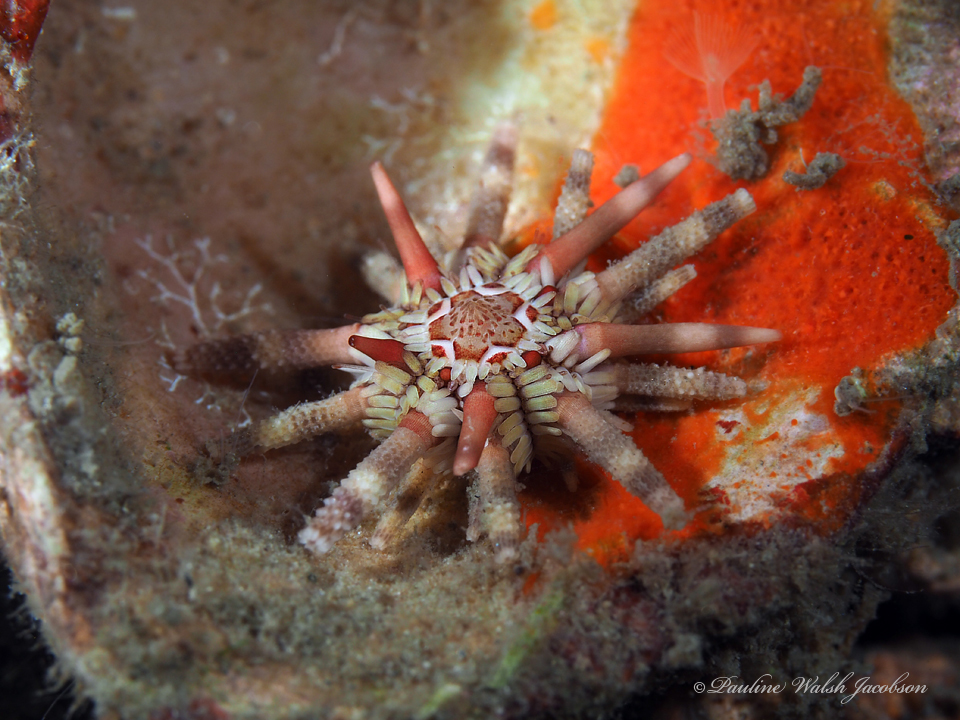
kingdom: Animalia
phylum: Echinodermata
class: Echinoidea
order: Cidaroida
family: Cidaridae
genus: Eucidaris
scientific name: Eucidaris tribuloides
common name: Slate pencil urchin
